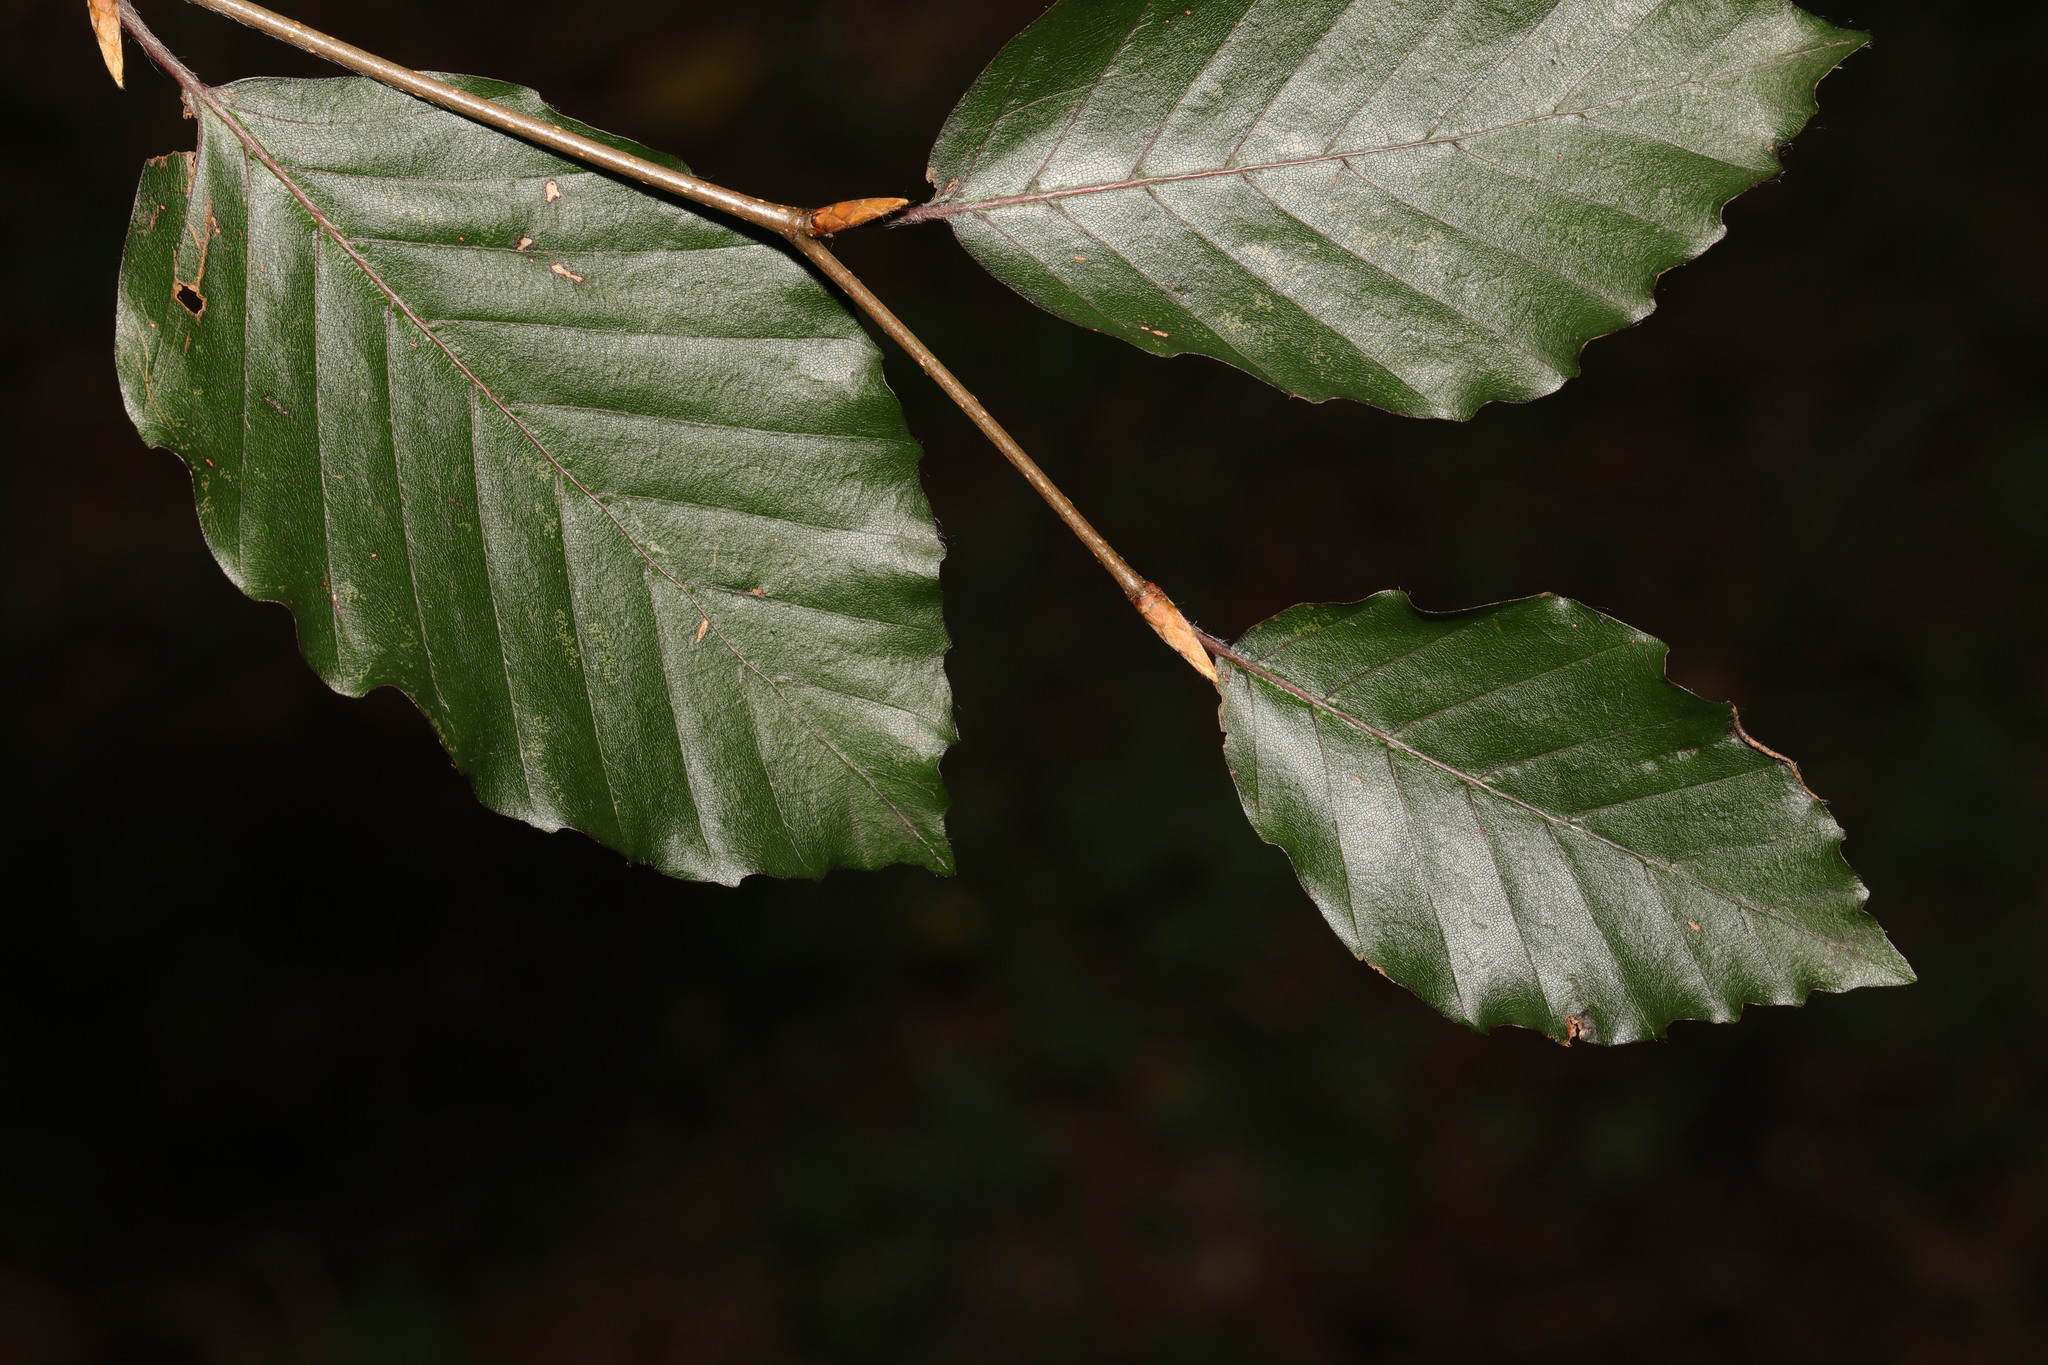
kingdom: Plantae
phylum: Tracheophyta
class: Magnoliopsida
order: Fagales
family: Fagaceae
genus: Fagus
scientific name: Fagus sylvatica
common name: Beech
